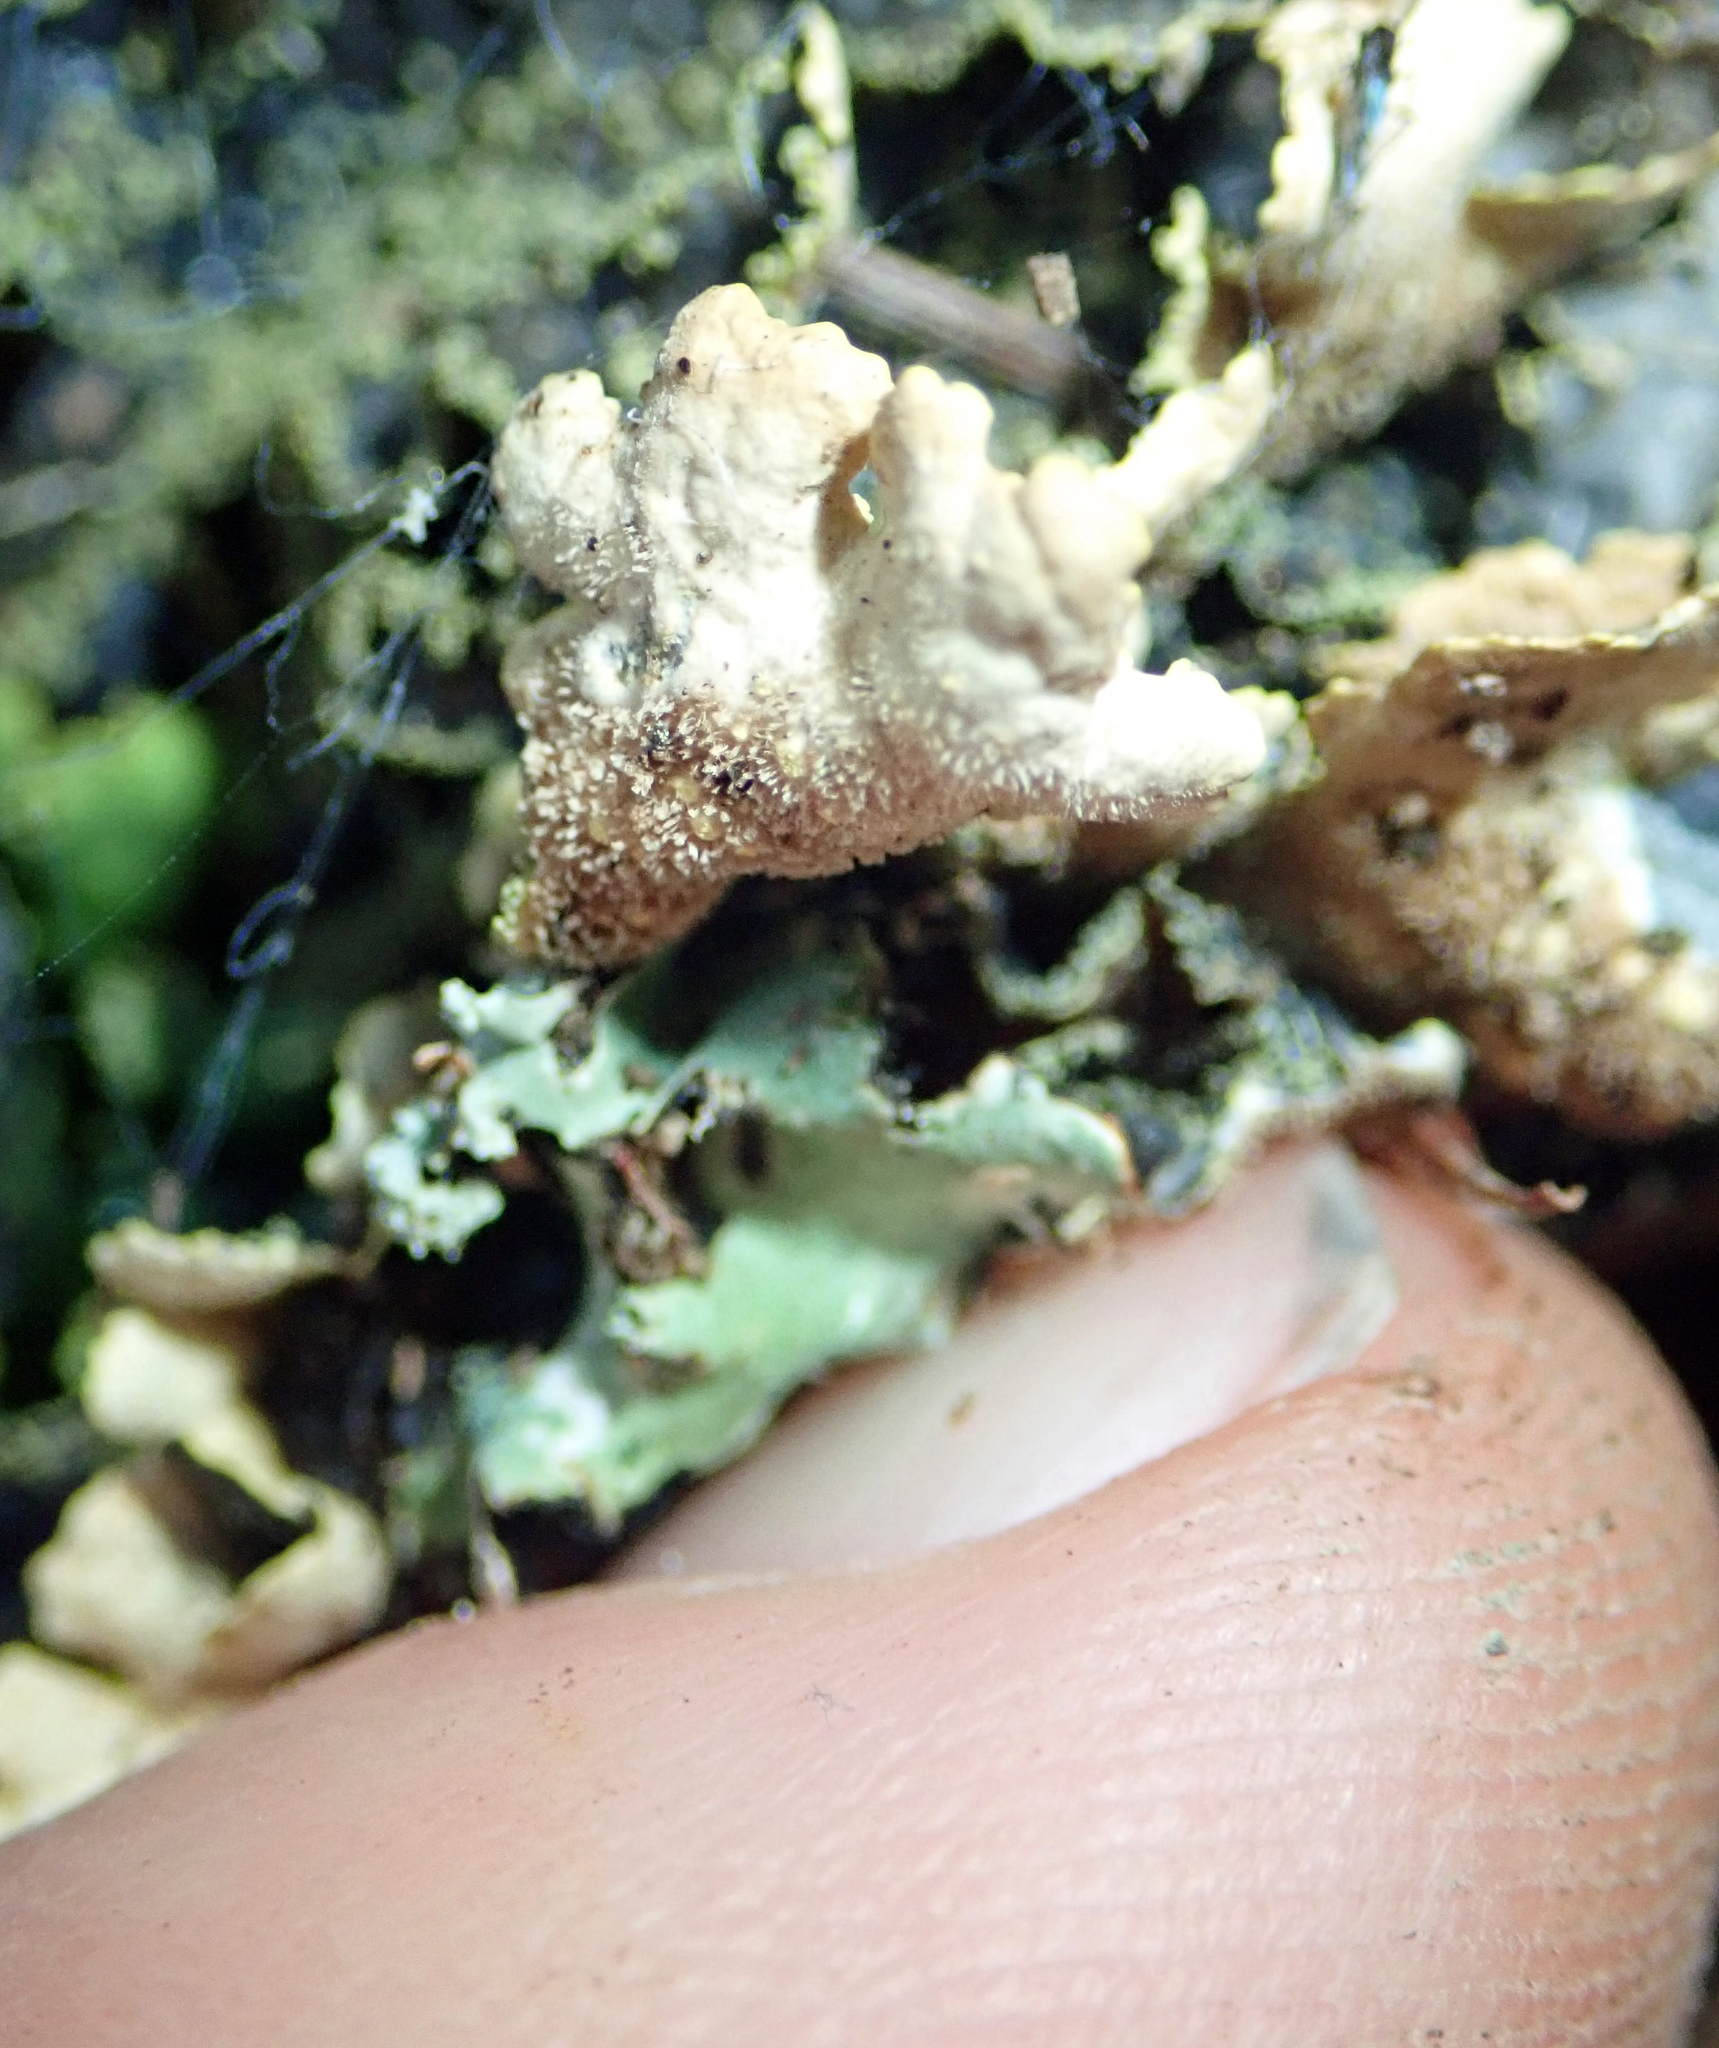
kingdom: Fungi
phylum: Ascomycota
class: Lecanoromycetes
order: Peltigerales
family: Lobariaceae
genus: Pseudocyphellaria
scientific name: Pseudocyphellaria crocata
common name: Golden specklebelly
